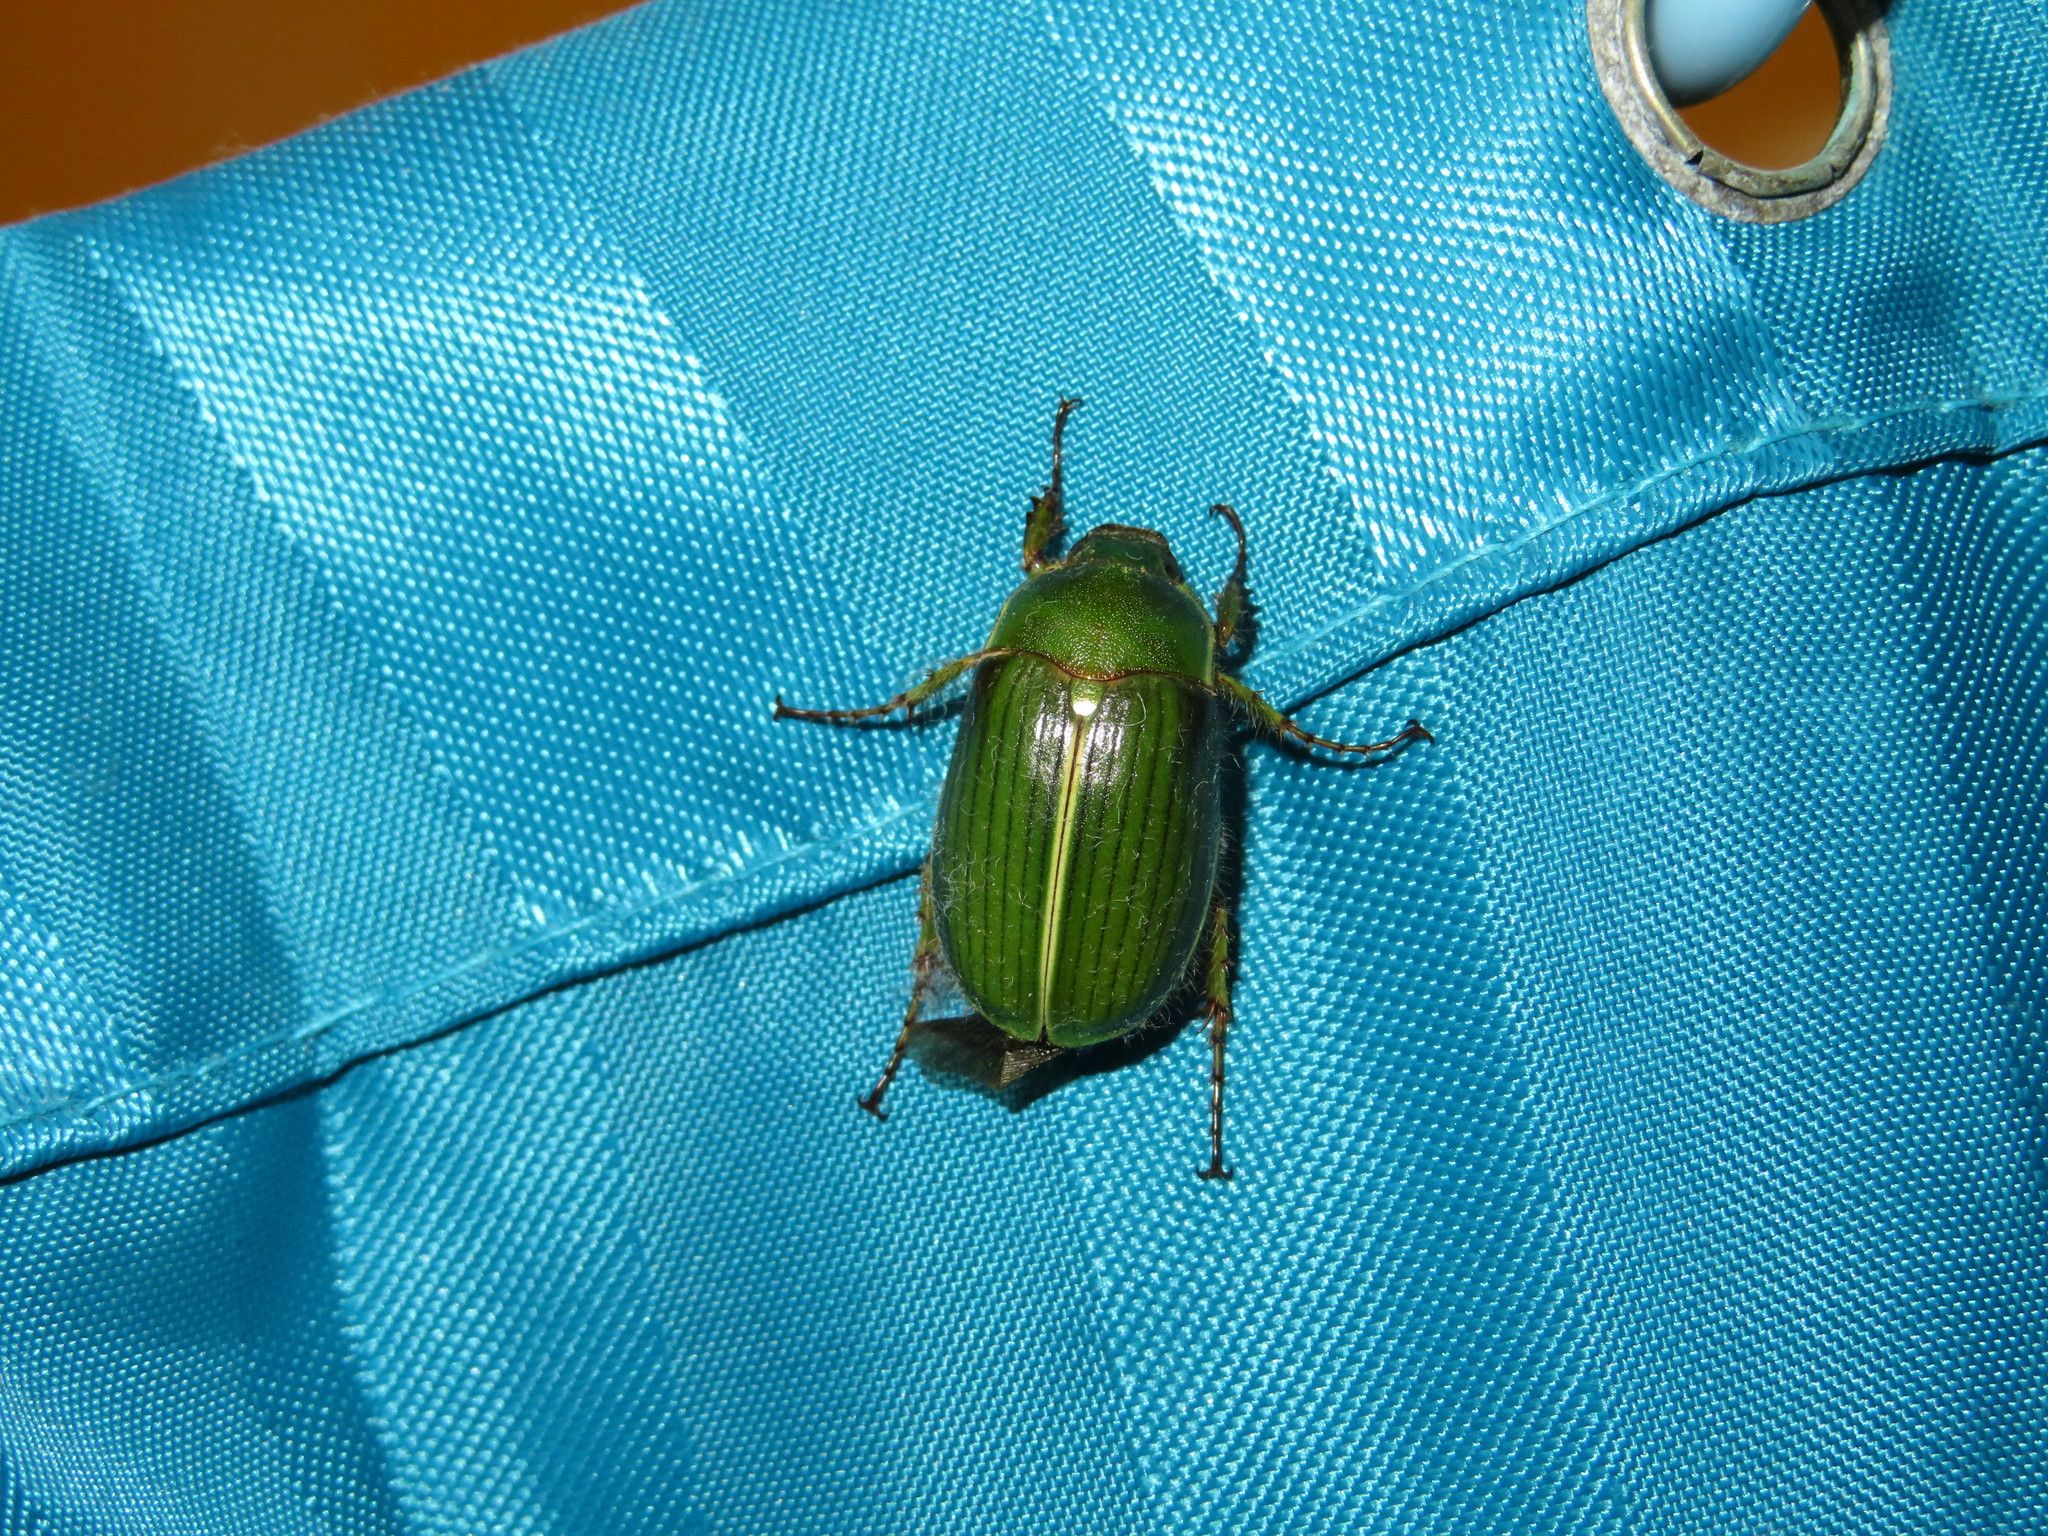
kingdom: Animalia
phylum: Arthropoda
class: Insecta
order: Coleoptera
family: Scarabaeidae
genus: Stethaspis
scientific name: Stethaspis suturalis
